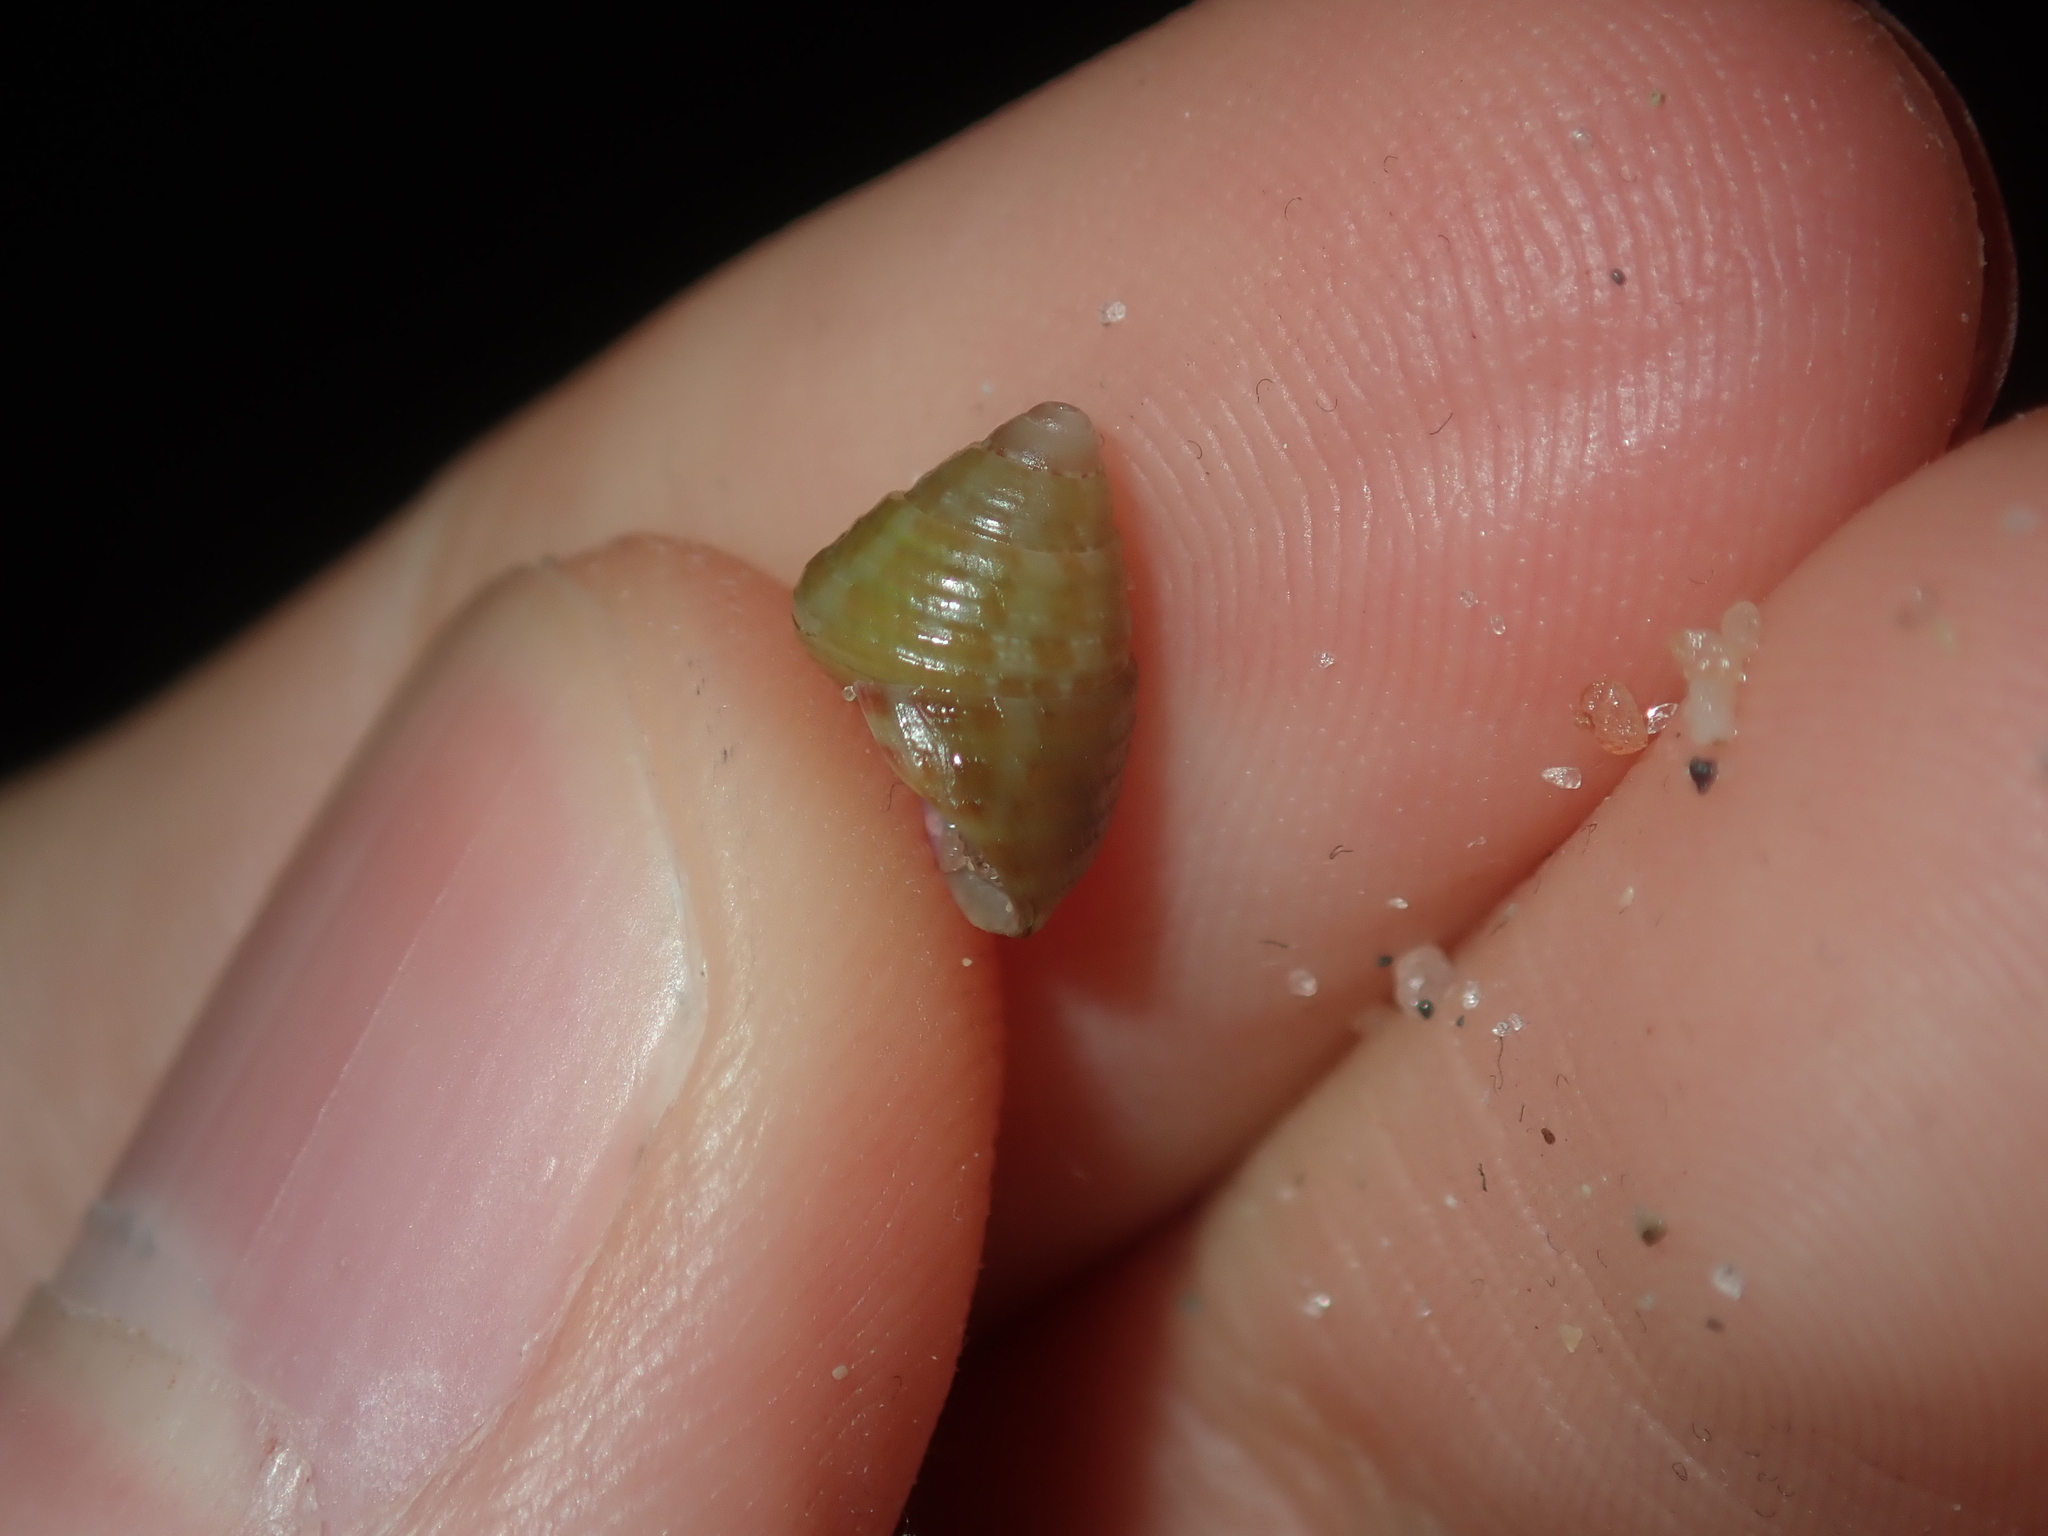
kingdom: Animalia
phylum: Mollusca
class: Gastropoda
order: Trochida
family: Trochidae
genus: Prothalotia
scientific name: Prothalotia pulcherrima
